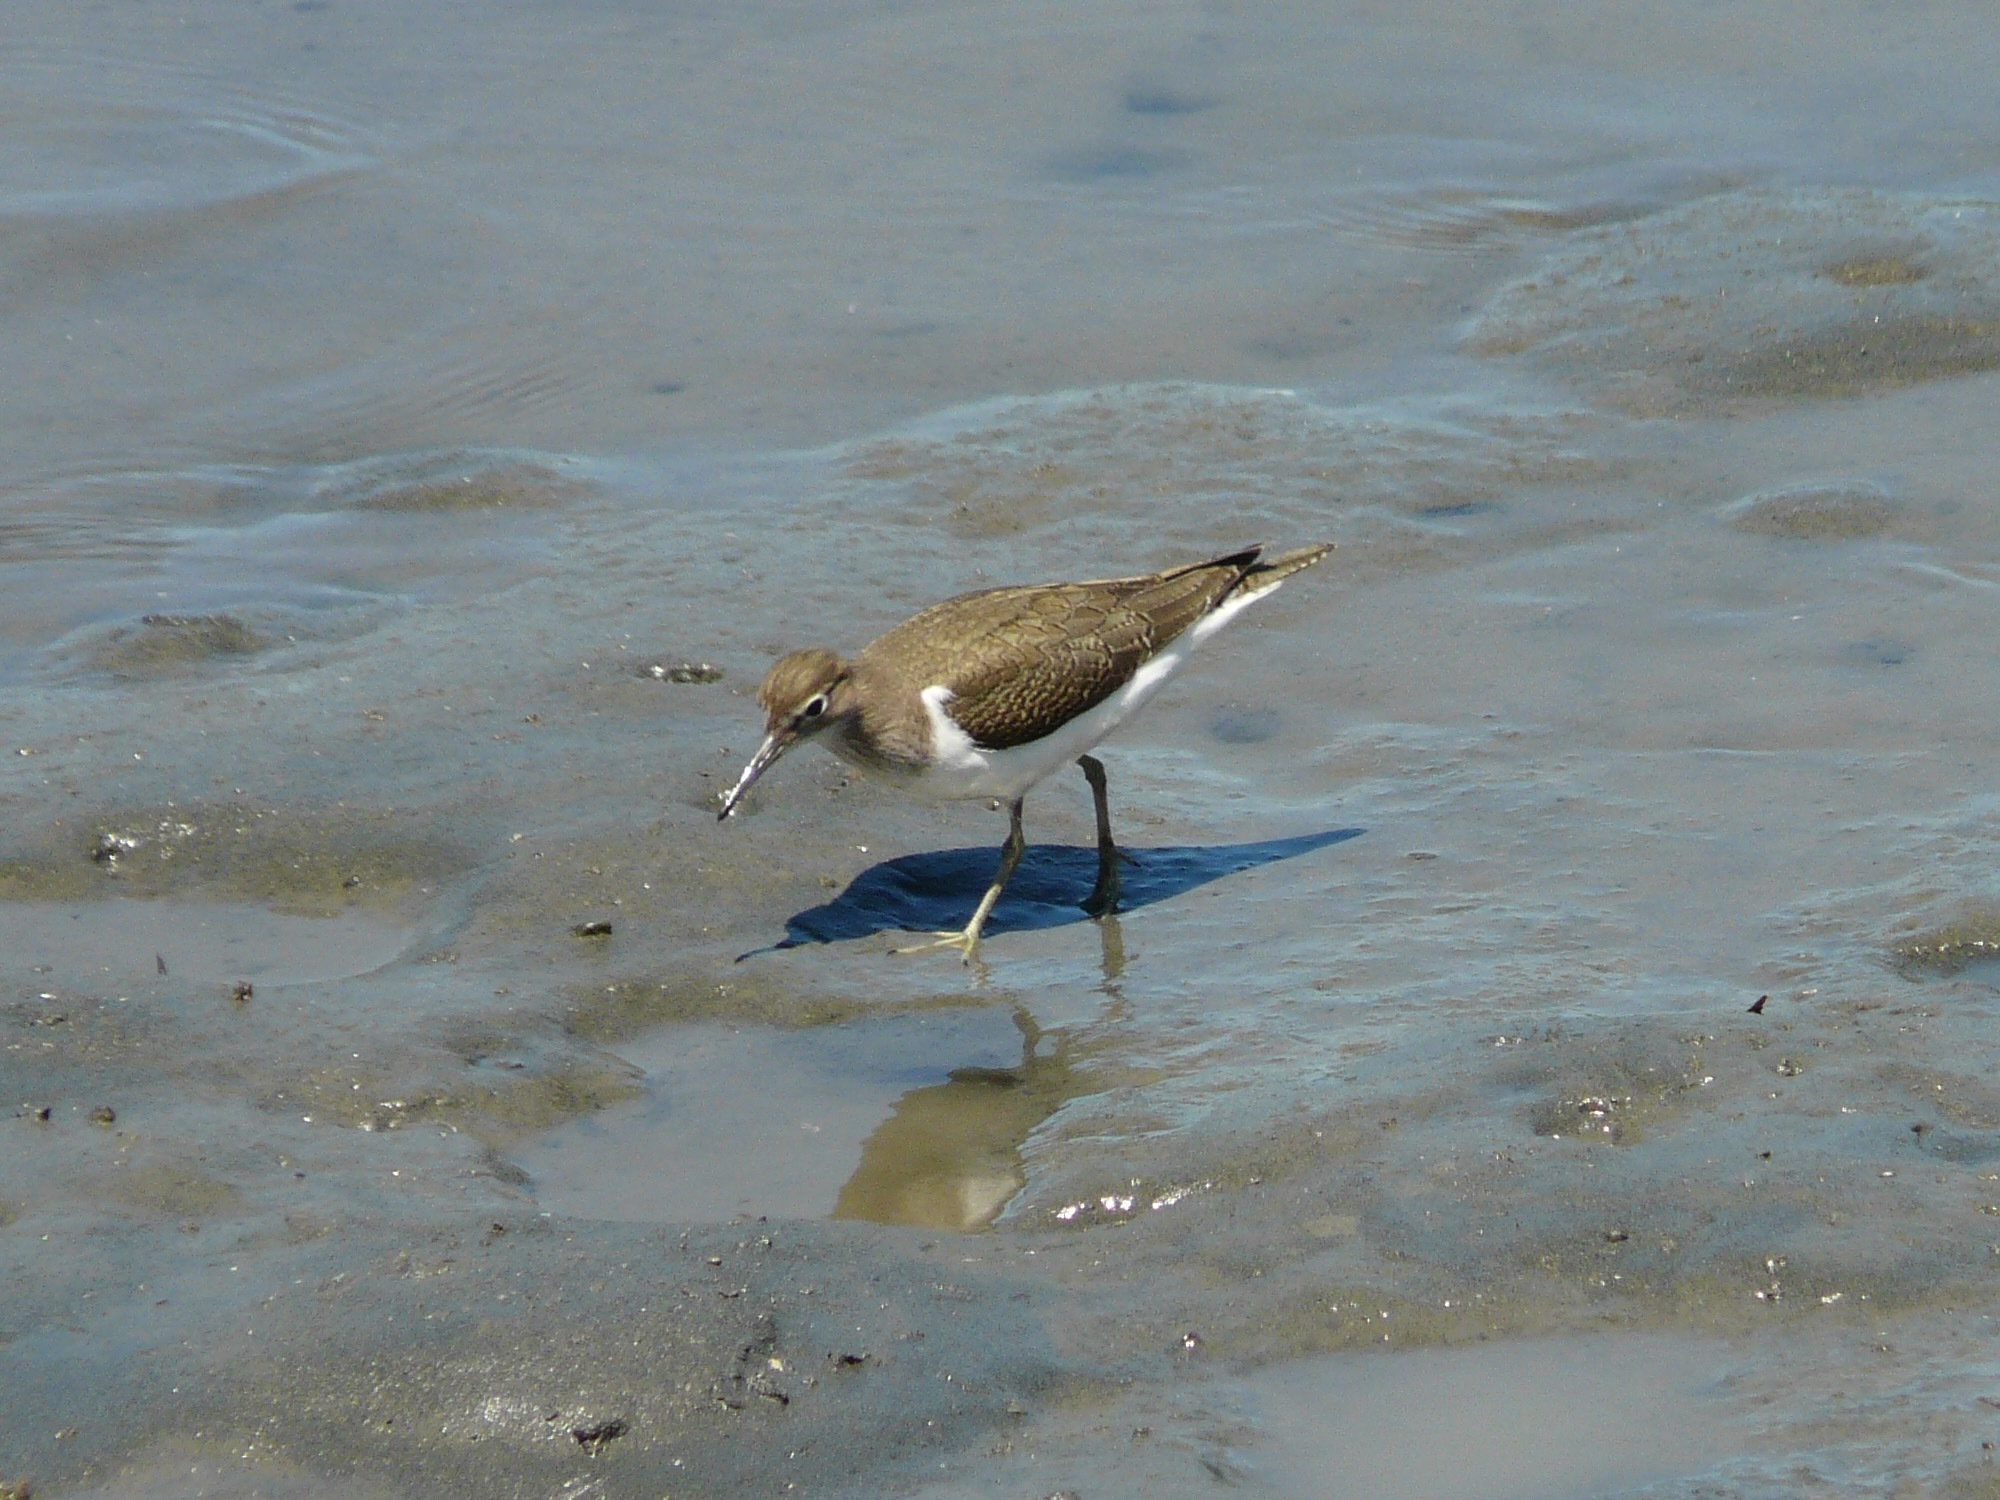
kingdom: Animalia
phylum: Chordata
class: Aves
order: Charadriiformes
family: Scolopacidae
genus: Actitis
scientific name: Actitis hypoleucos
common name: Common sandpiper
